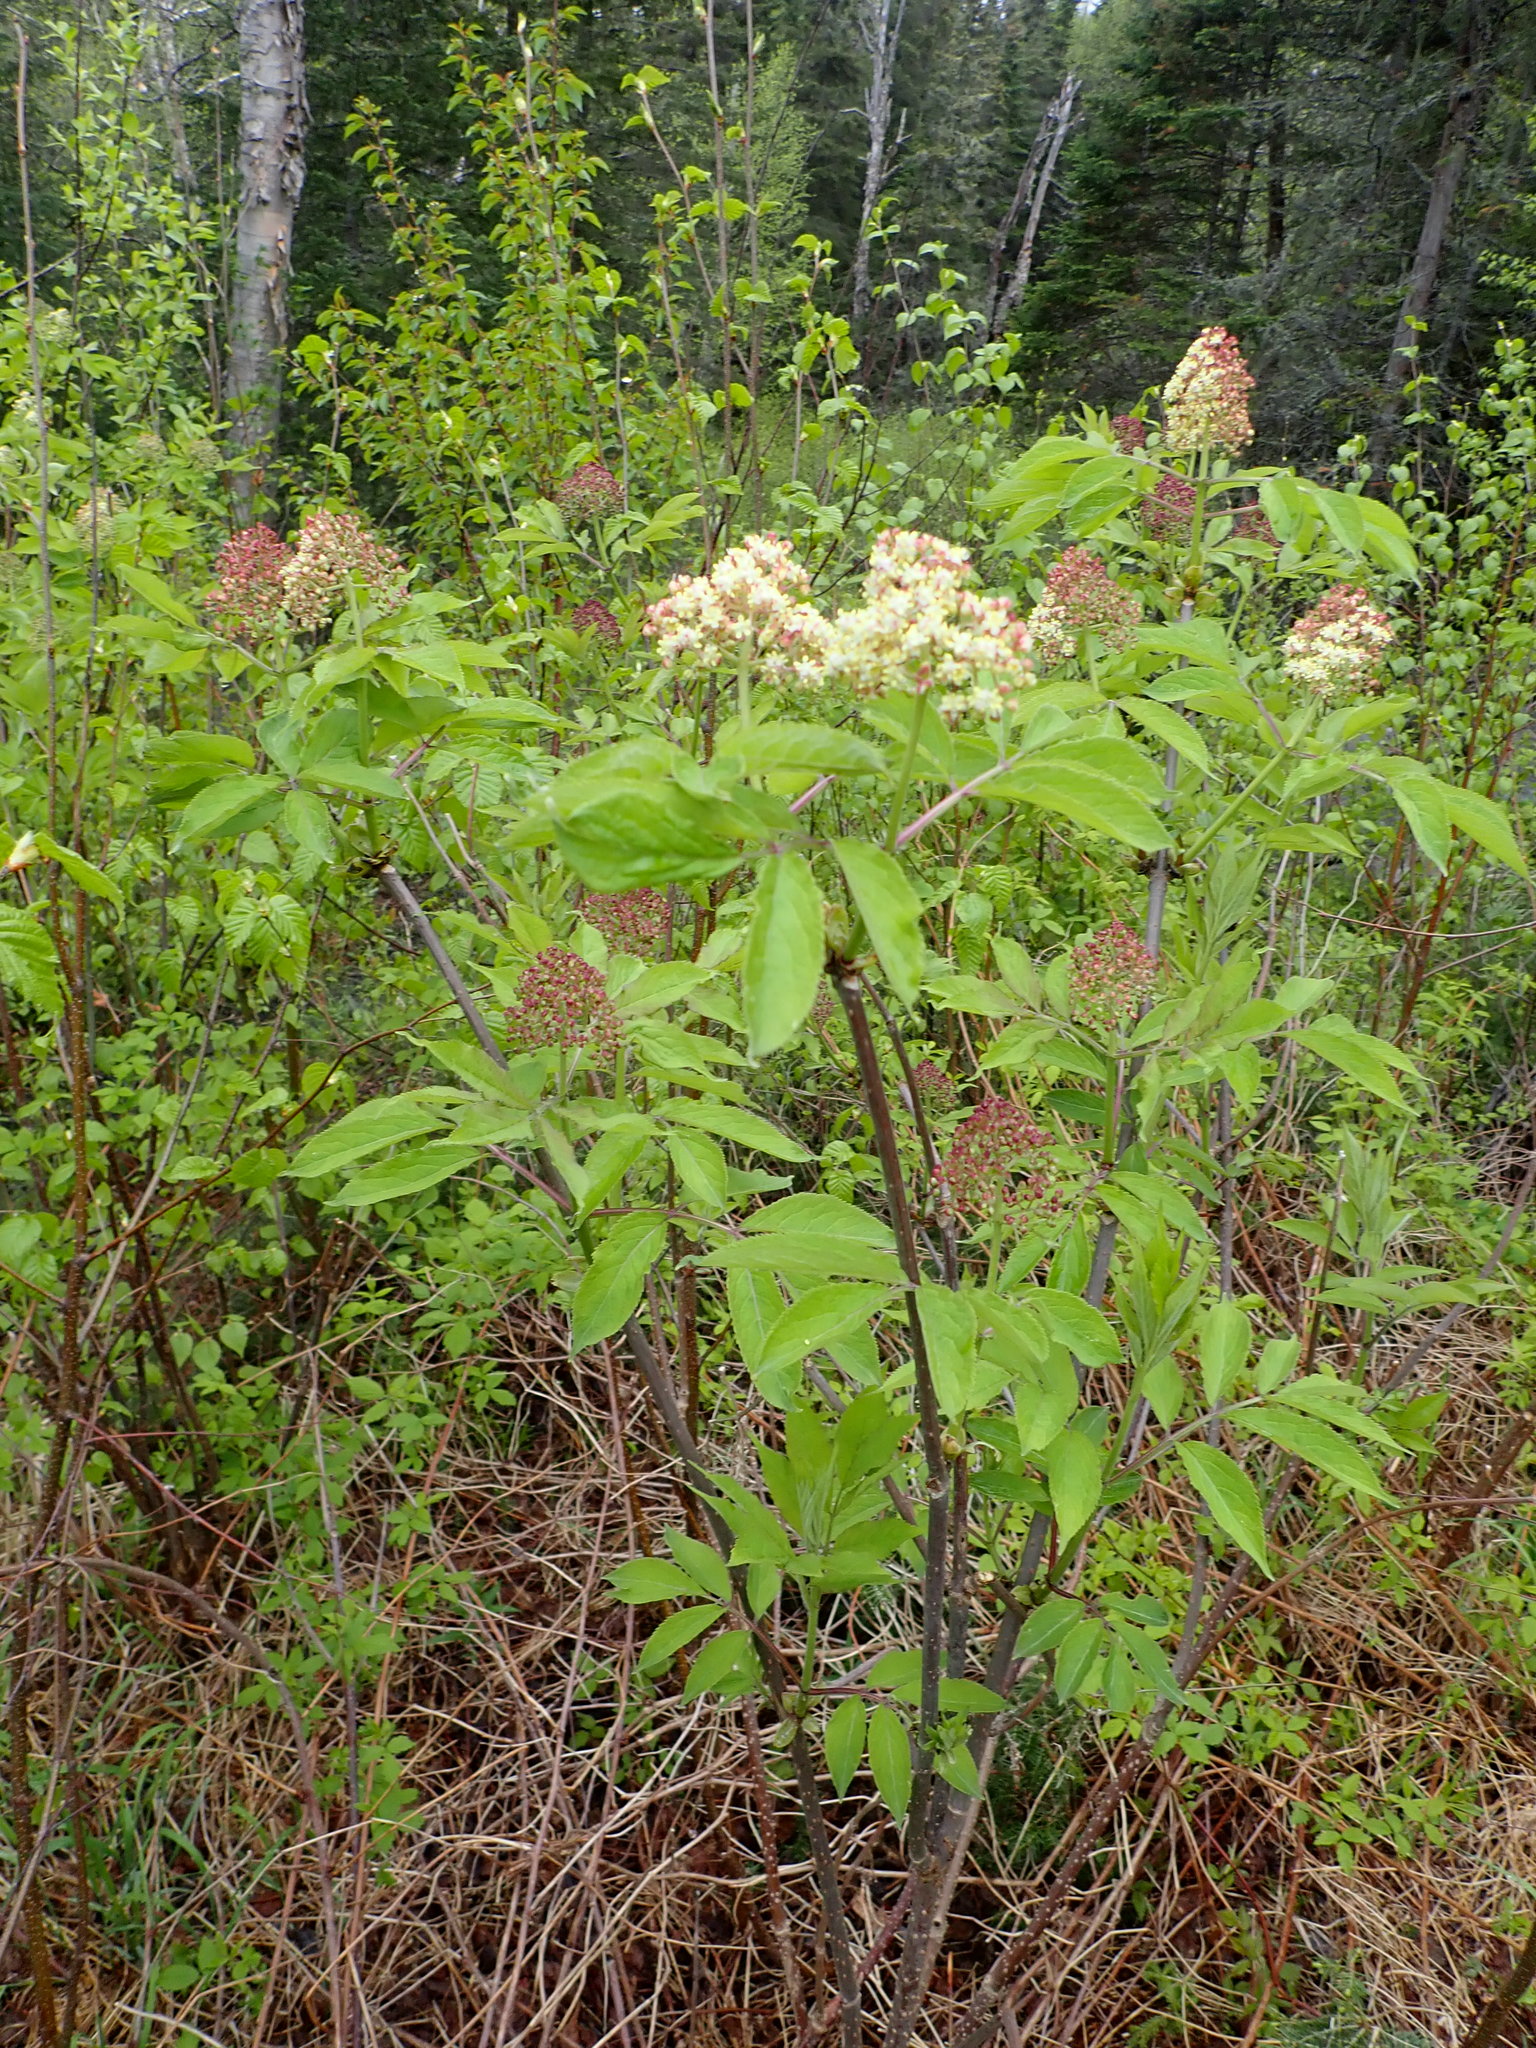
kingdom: Plantae
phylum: Tracheophyta
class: Magnoliopsida
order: Dipsacales
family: Viburnaceae
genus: Sambucus
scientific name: Sambucus racemosa
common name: Red-berried elder
